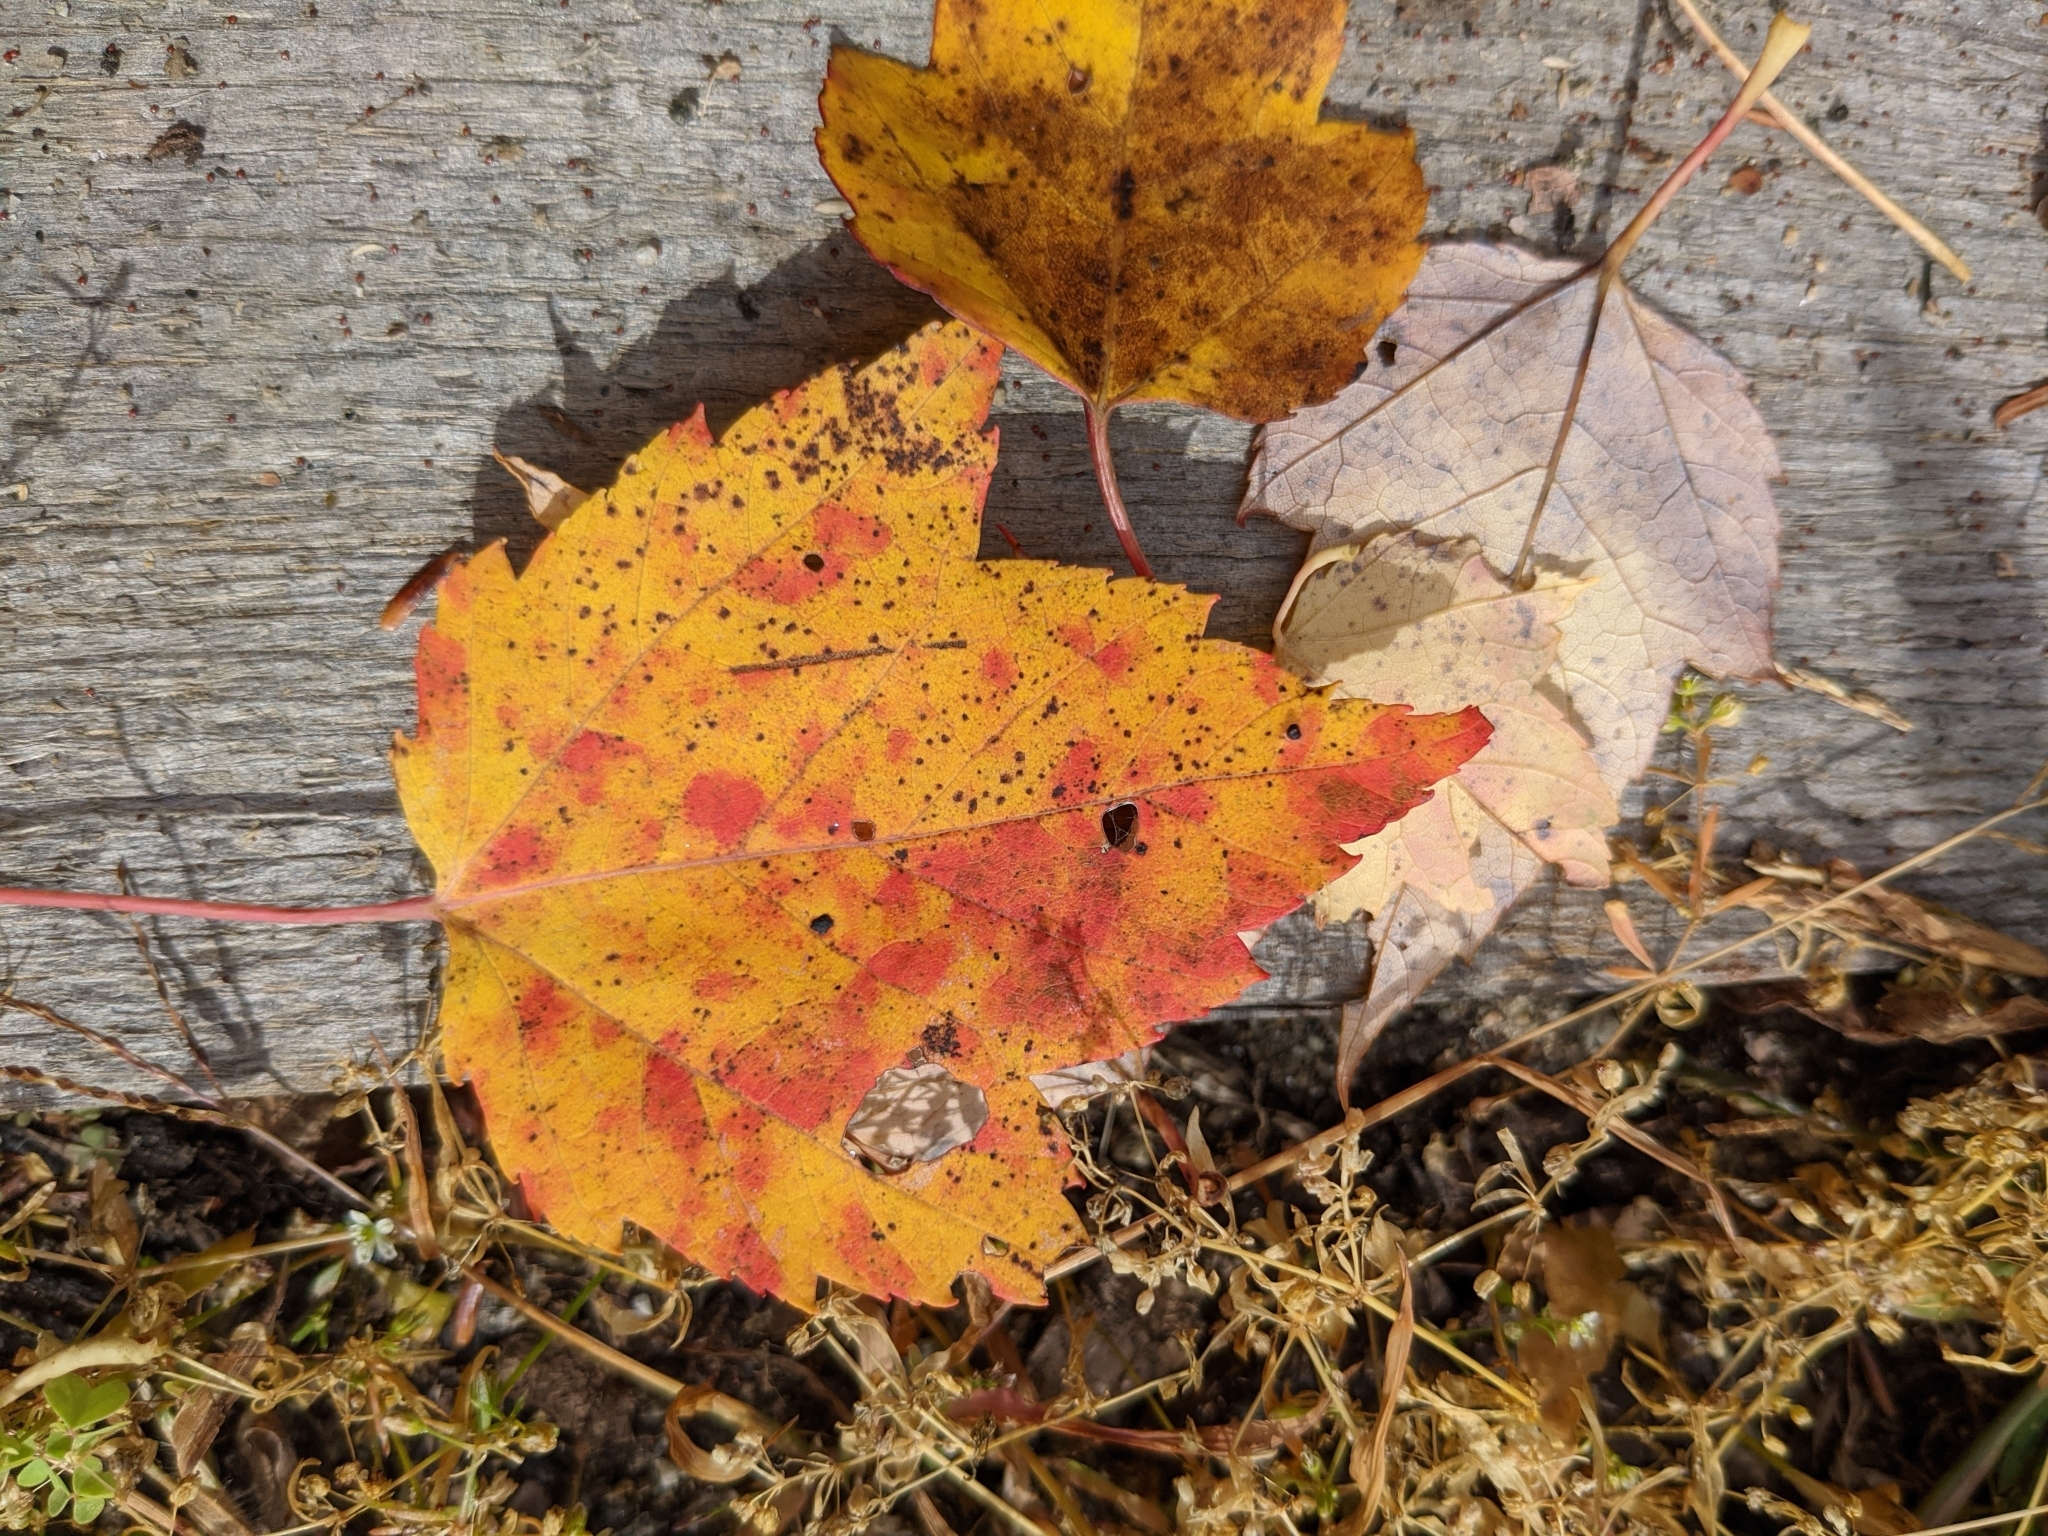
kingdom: Plantae
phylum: Tracheophyta
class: Magnoliopsida
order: Sapindales
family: Sapindaceae
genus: Acer
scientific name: Acer rubrum
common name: Red maple
